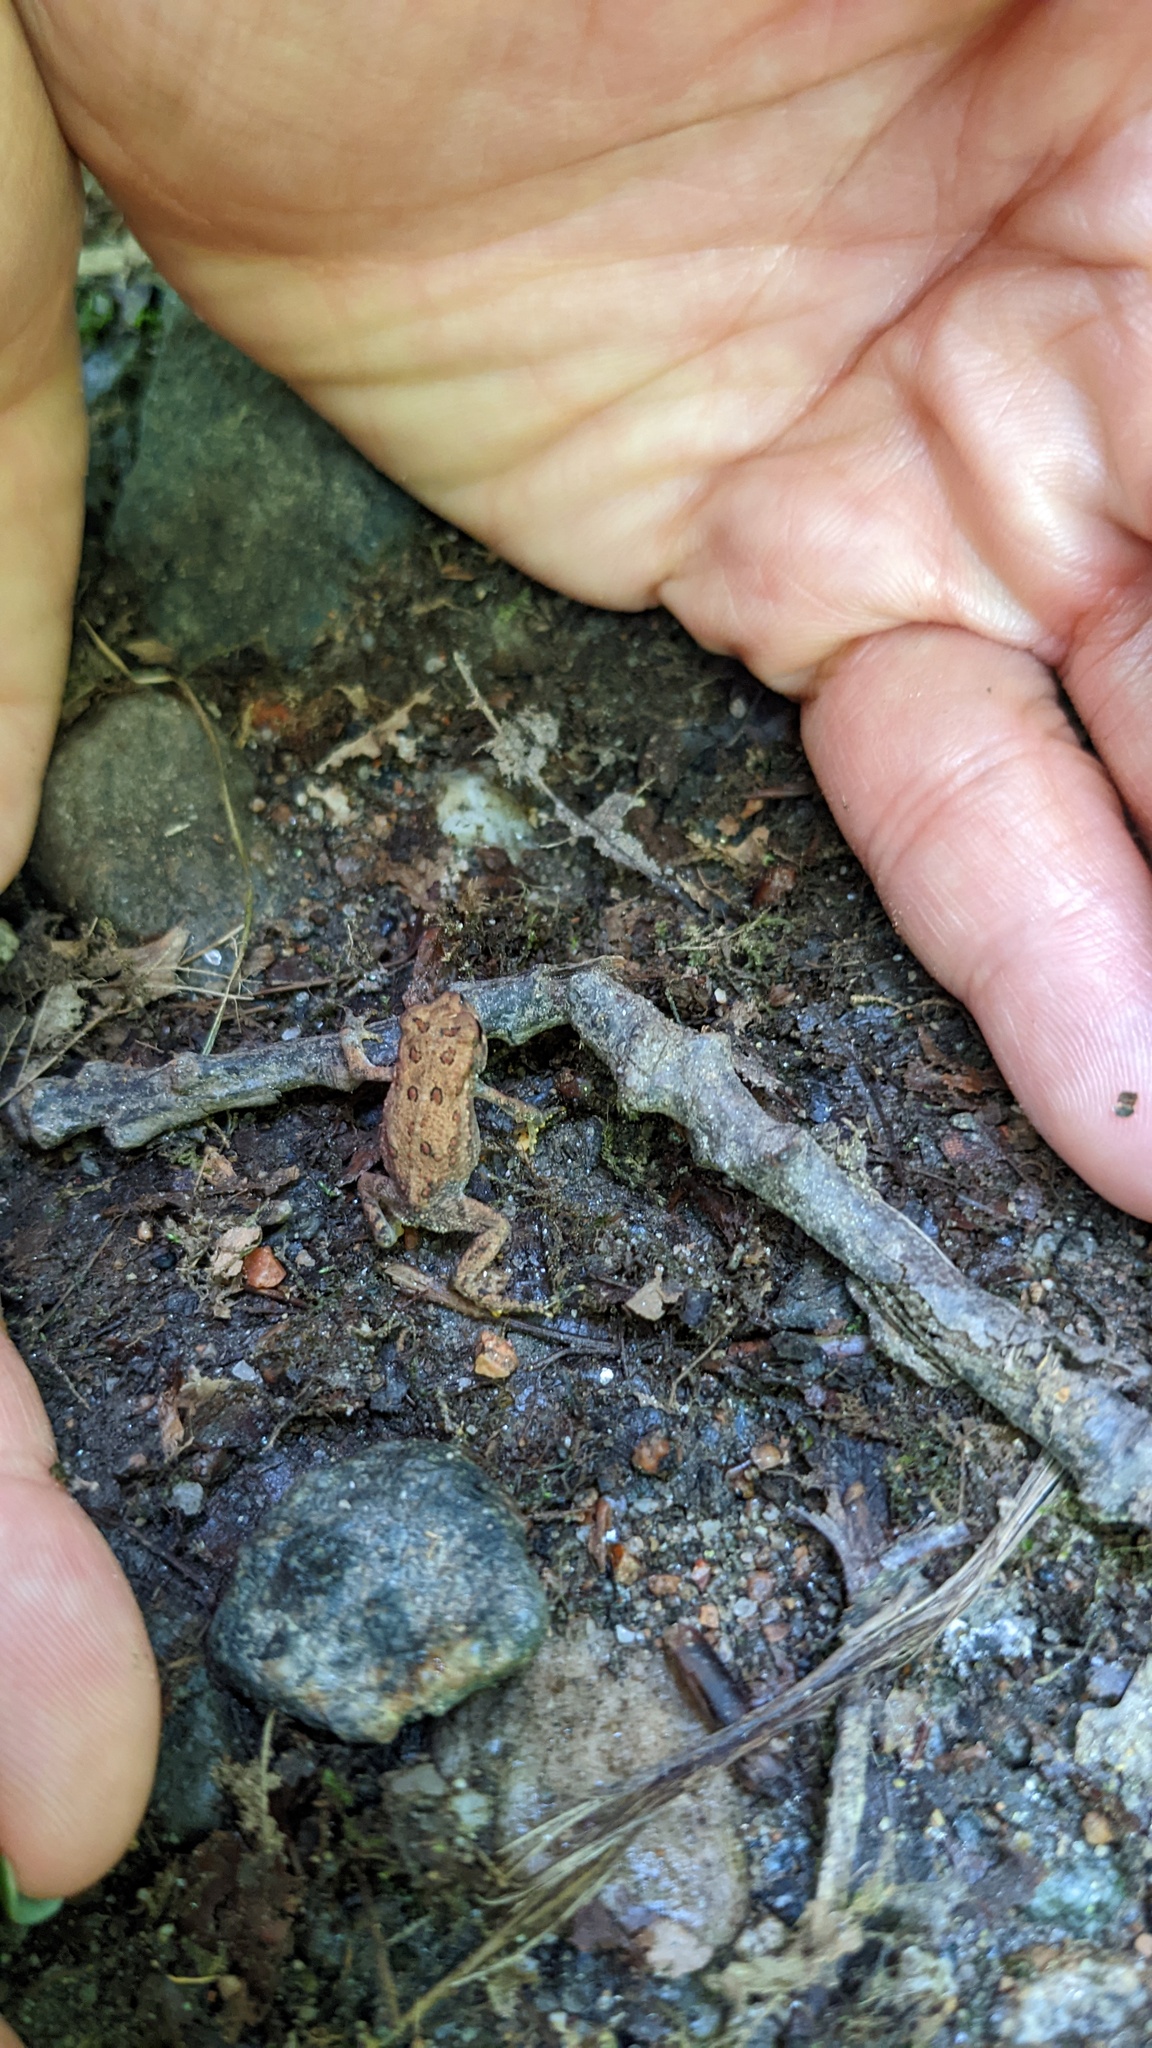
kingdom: Animalia
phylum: Chordata
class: Amphibia
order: Anura
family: Bufonidae
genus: Anaxyrus
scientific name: Anaxyrus americanus
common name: American toad
